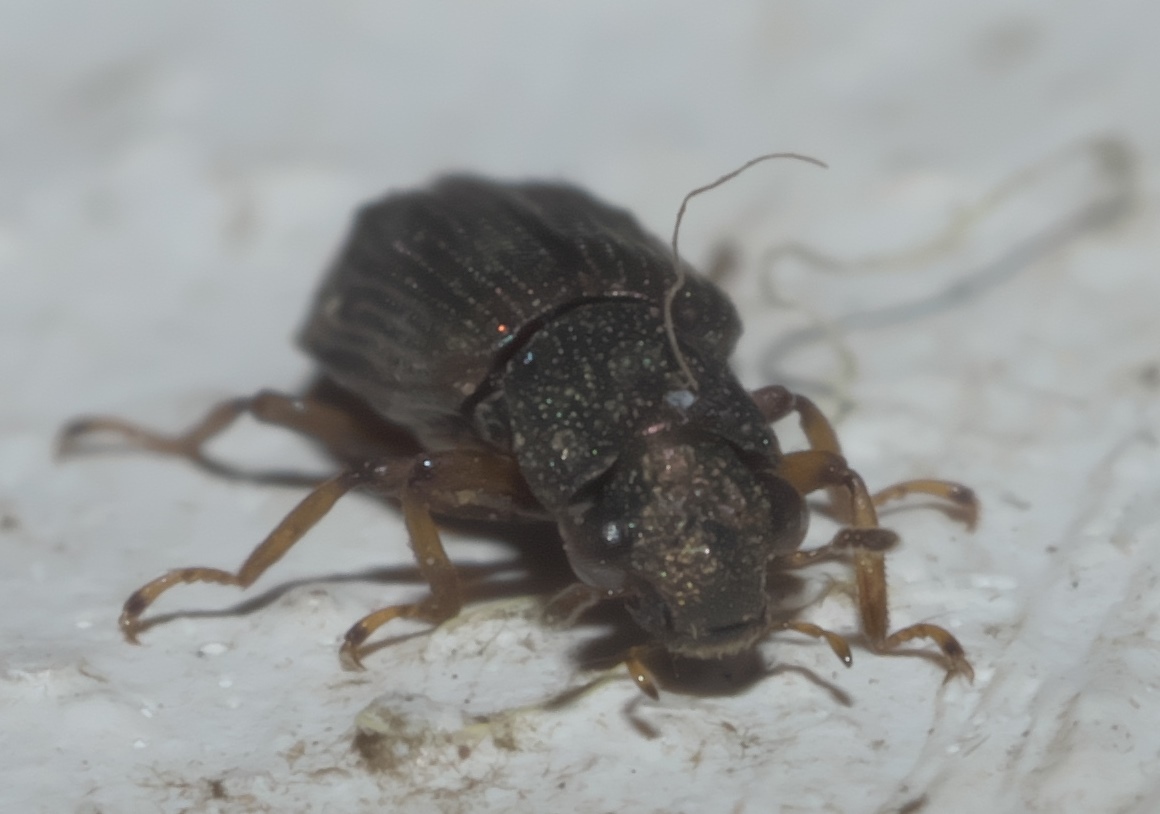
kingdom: Animalia
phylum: Arthropoda
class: Insecta
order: Coleoptera
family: Hydrochidae
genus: Hydrochus
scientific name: Hydrochus
